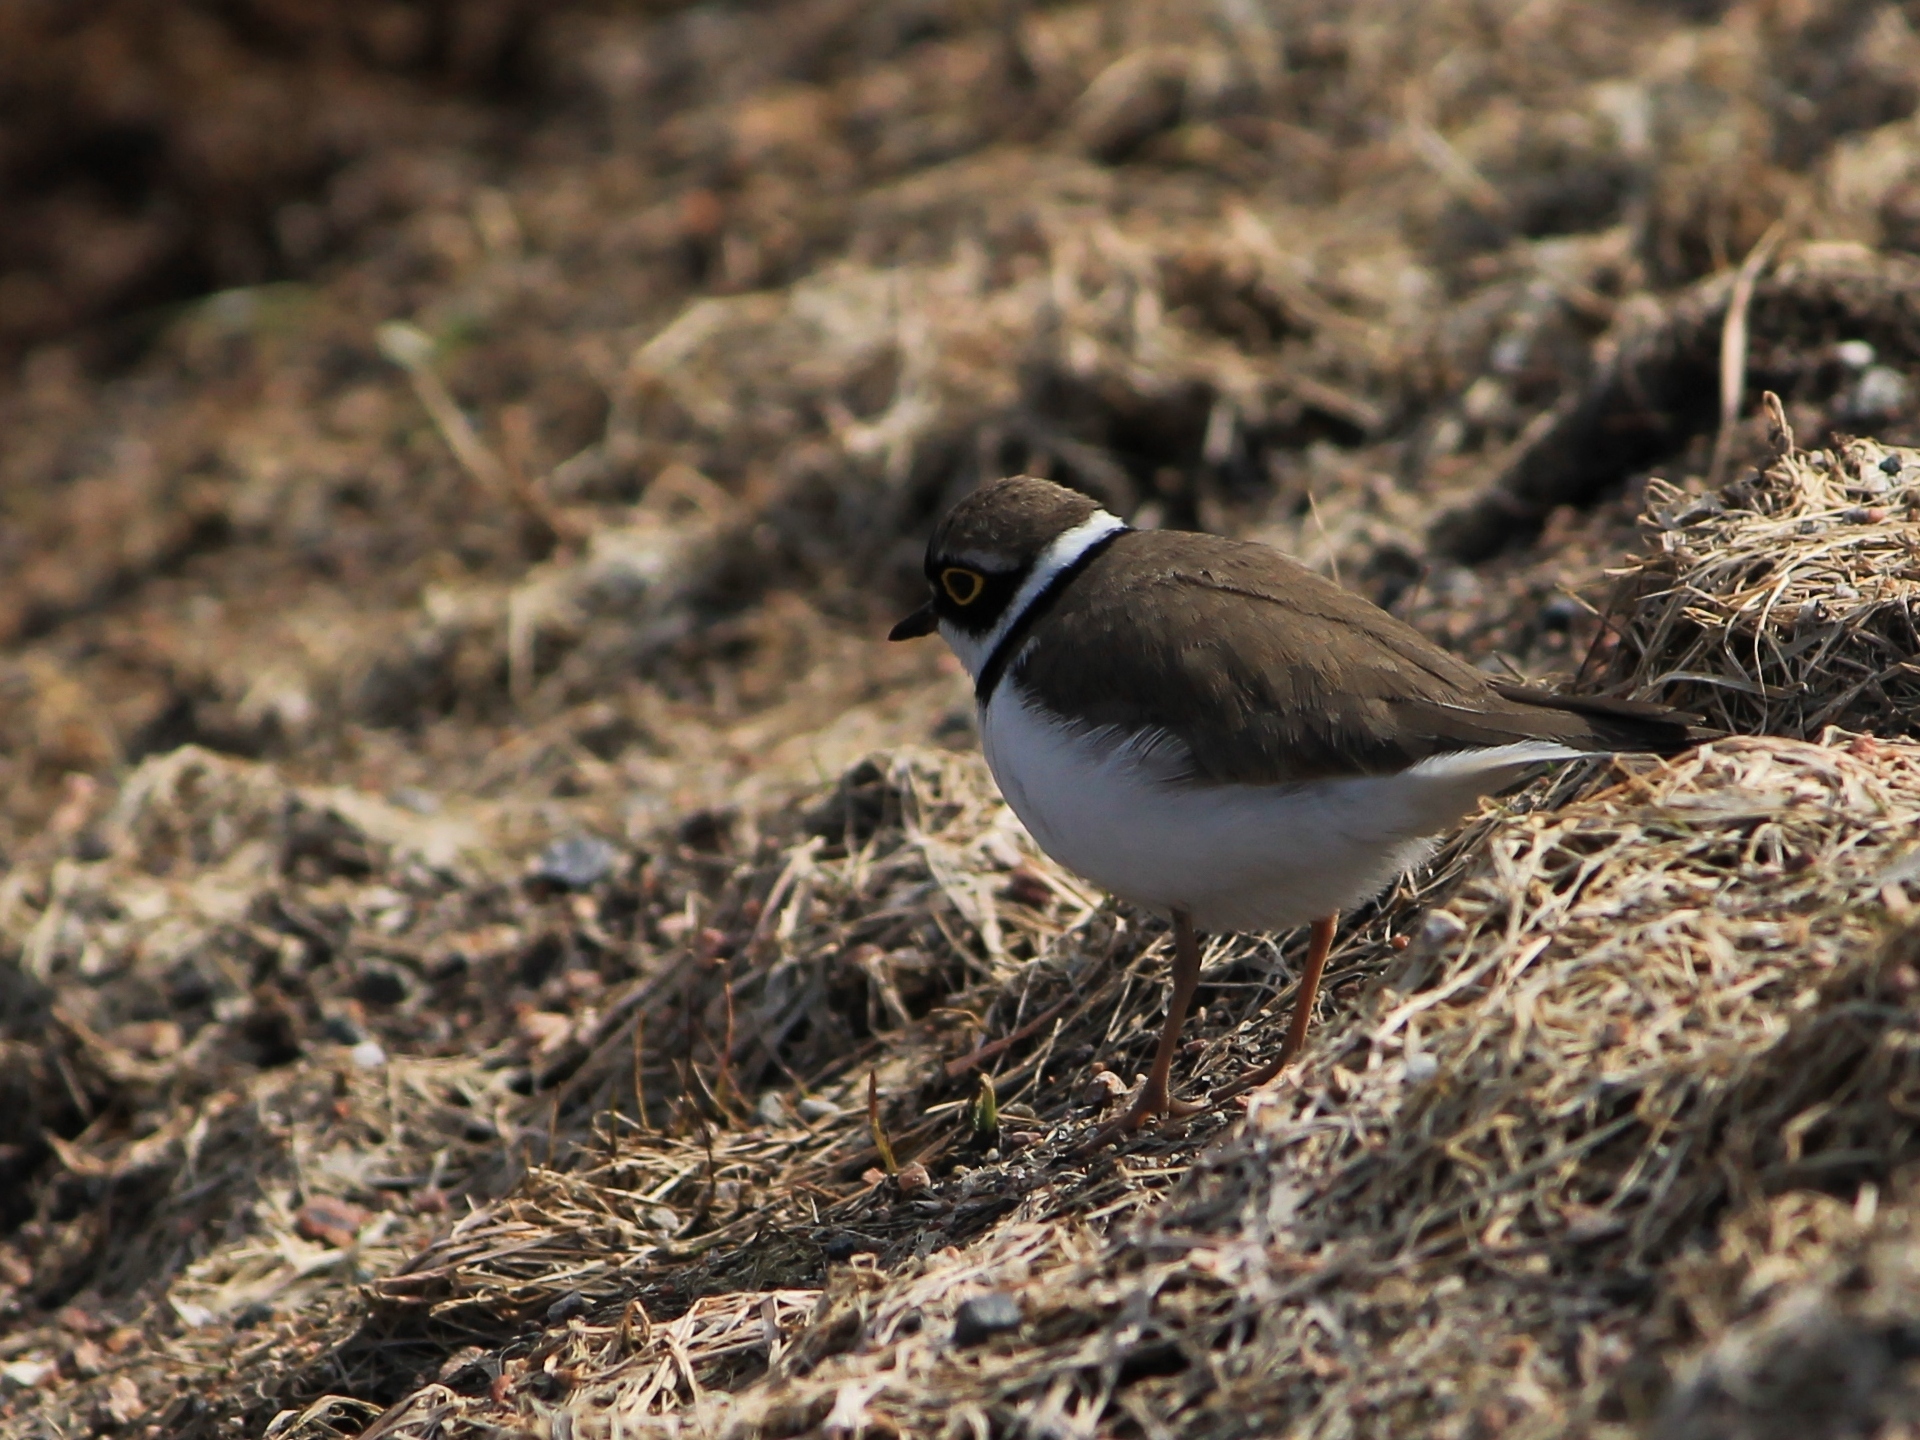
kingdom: Animalia
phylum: Chordata
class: Aves
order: Charadriiformes
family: Charadriidae
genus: Charadrius
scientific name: Charadrius dubius
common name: Little ringed plover
